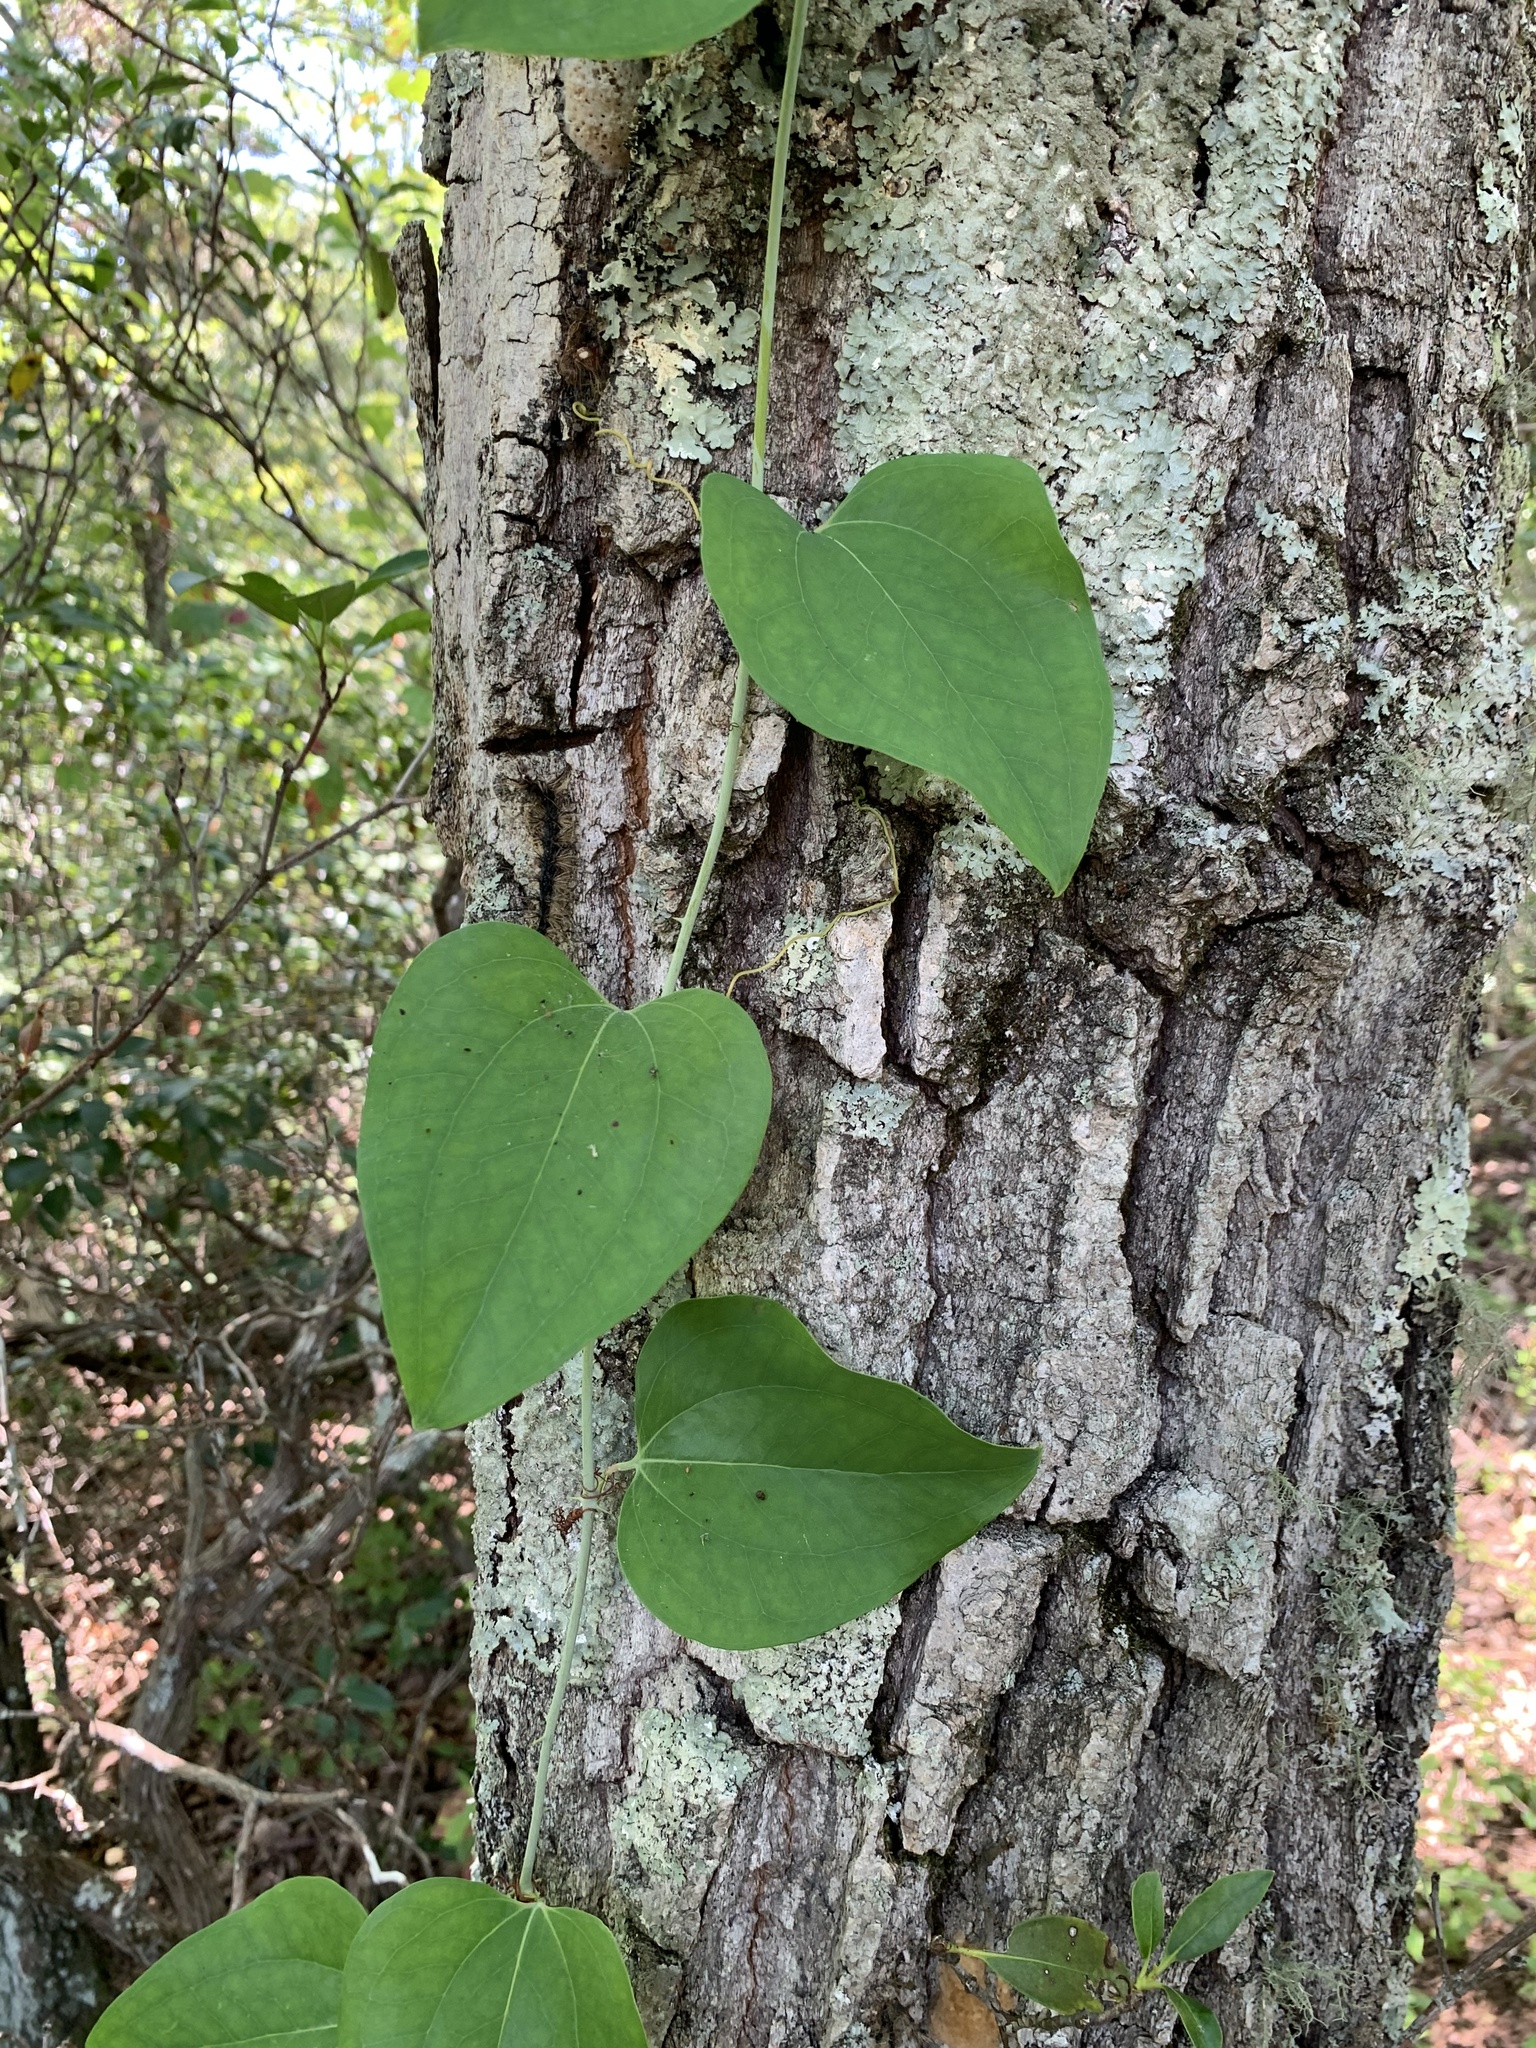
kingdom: Plantae
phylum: Tracheophyta
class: Liliopsida
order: Liliales
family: Smilacaceae
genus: Smilax
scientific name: Smilax glauca
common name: Cat greenbrier
